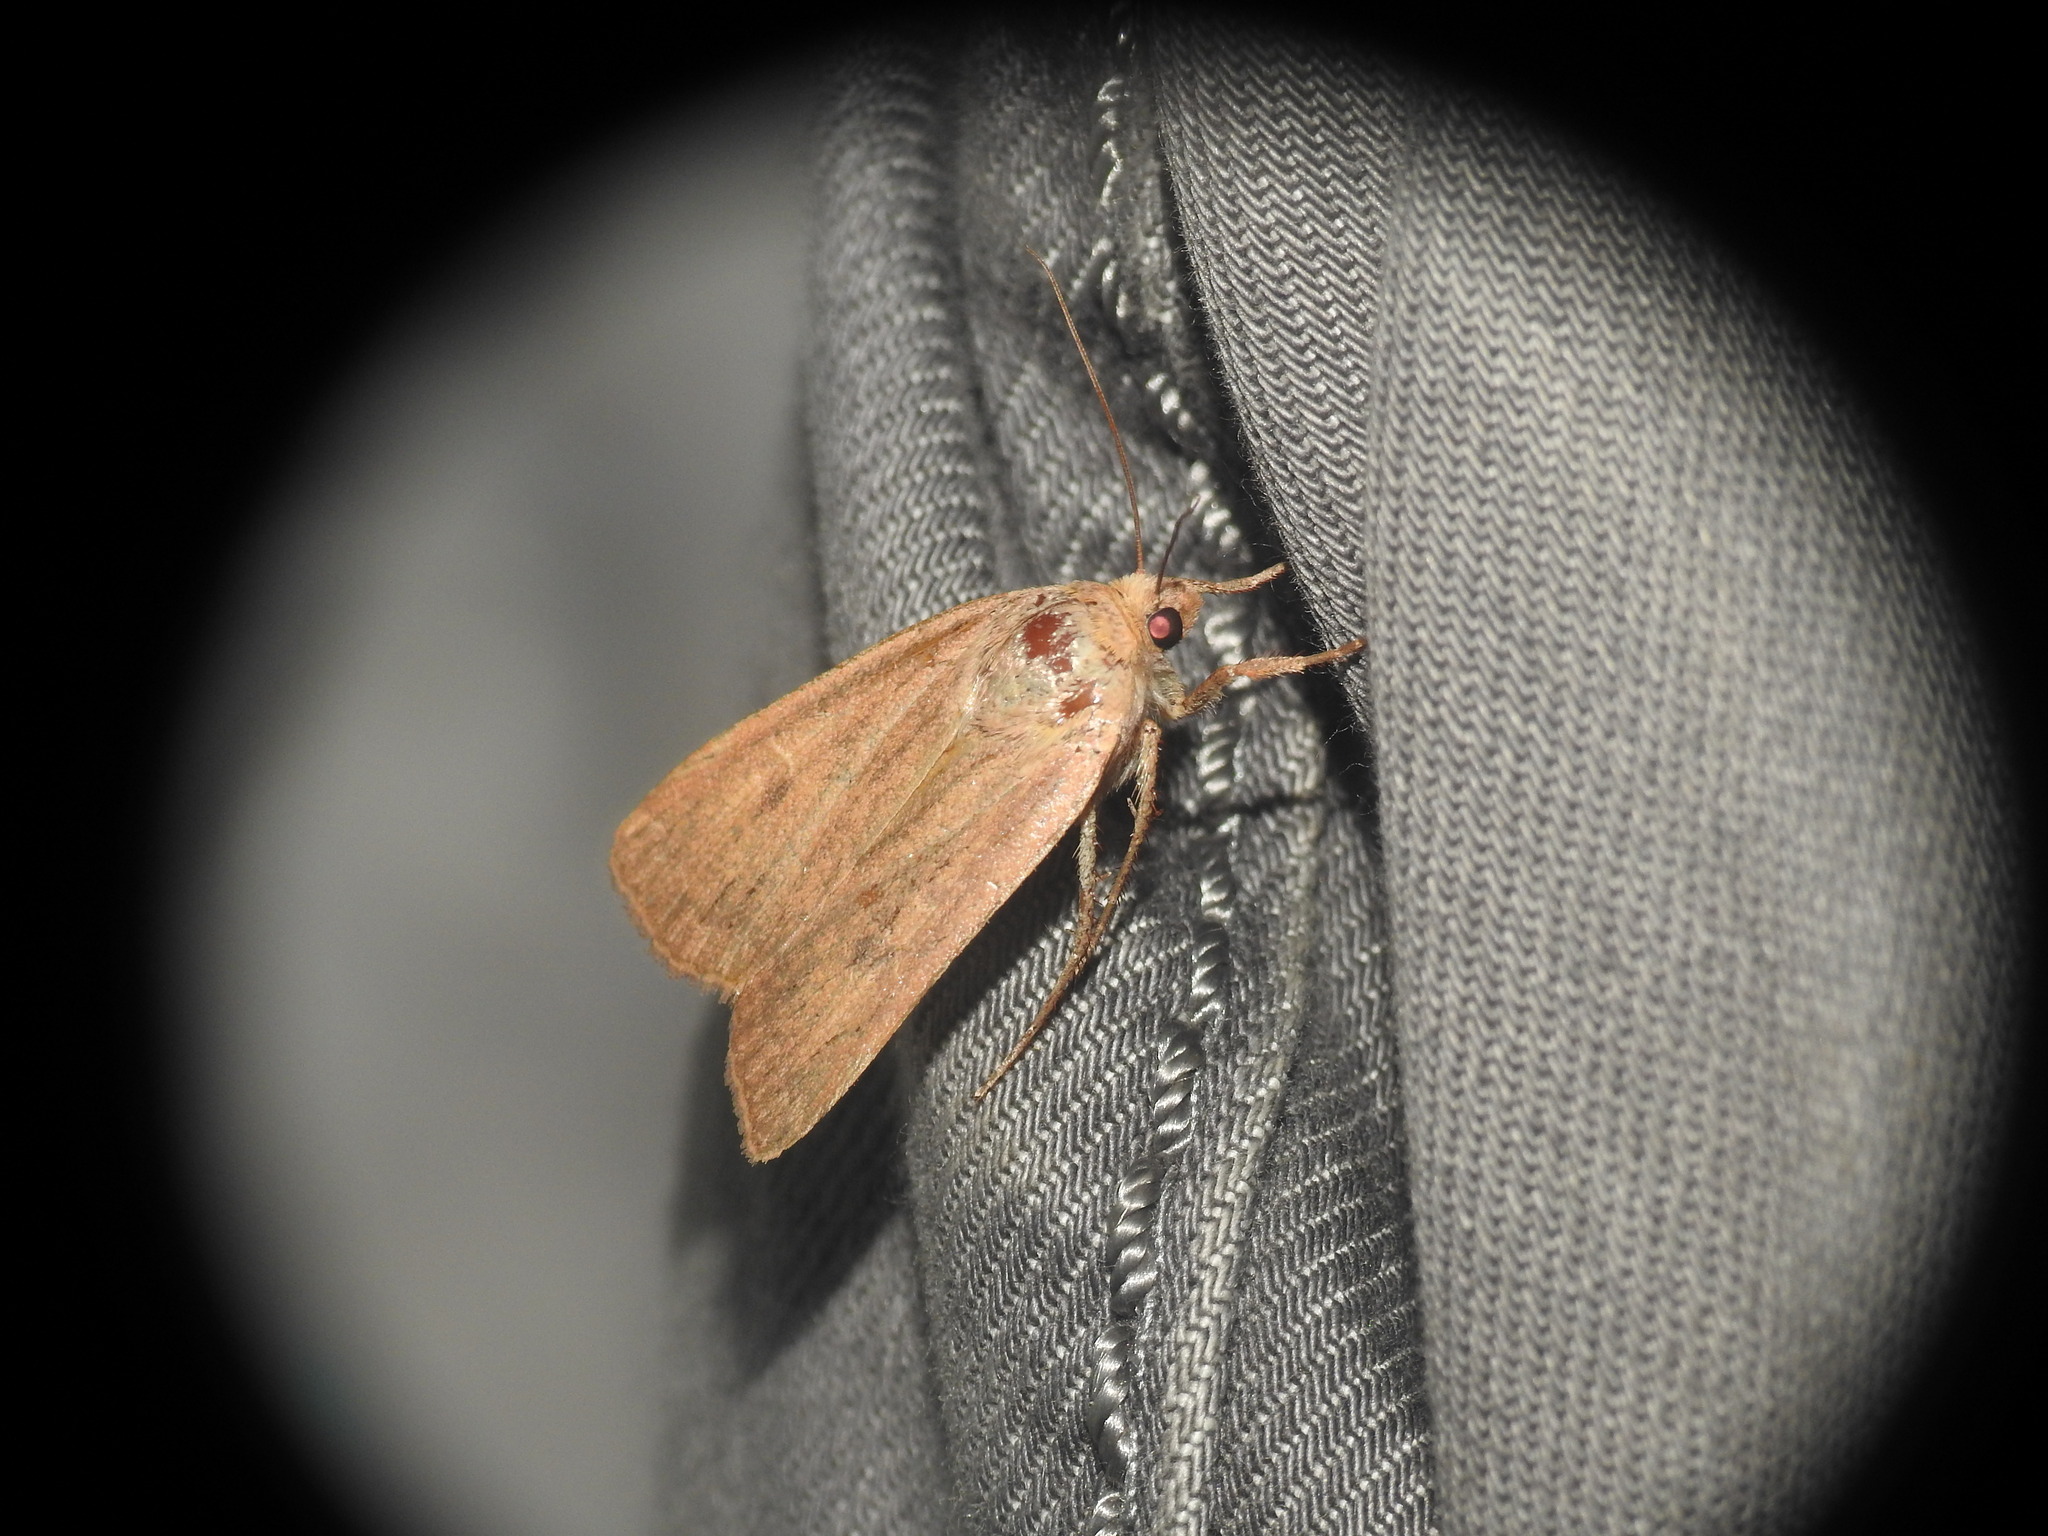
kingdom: Animalia
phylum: Arthropoda
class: Insecta
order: Lepidoptera
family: Noctuidae
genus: Noctua
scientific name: Noctua comes
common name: Lesser yellow underwing
